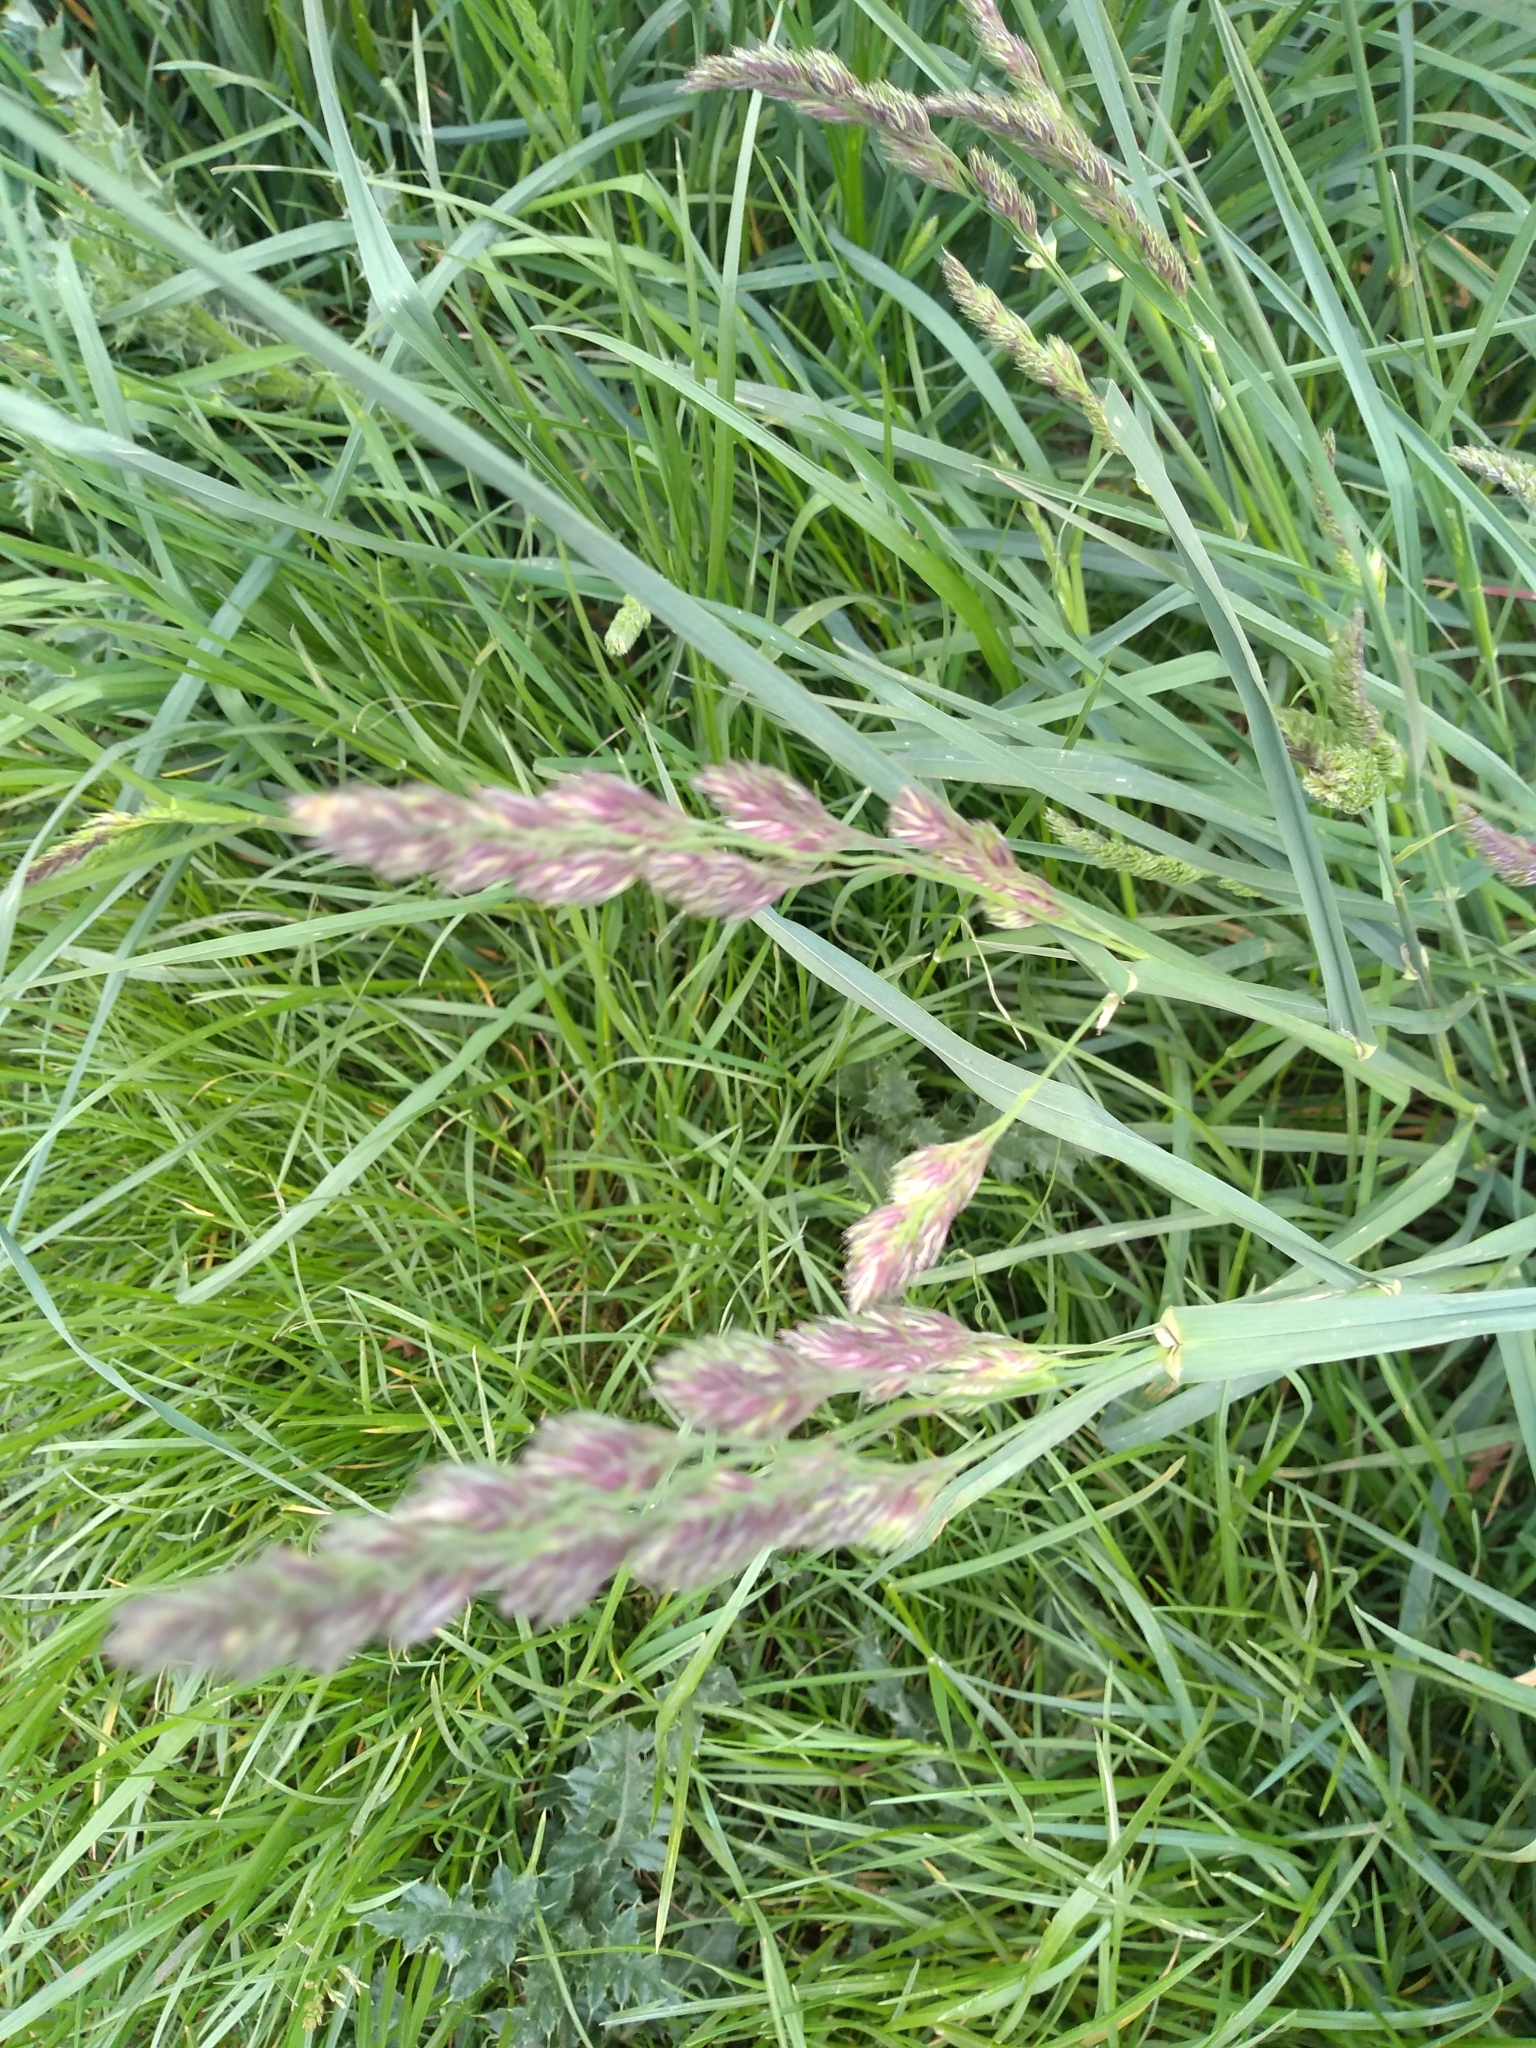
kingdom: Plantae
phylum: Tracheophyta
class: Liliopsida
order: Poales
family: Poaceae
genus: Dactylis
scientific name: Dactylis glomerata
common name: Orchardgrass
